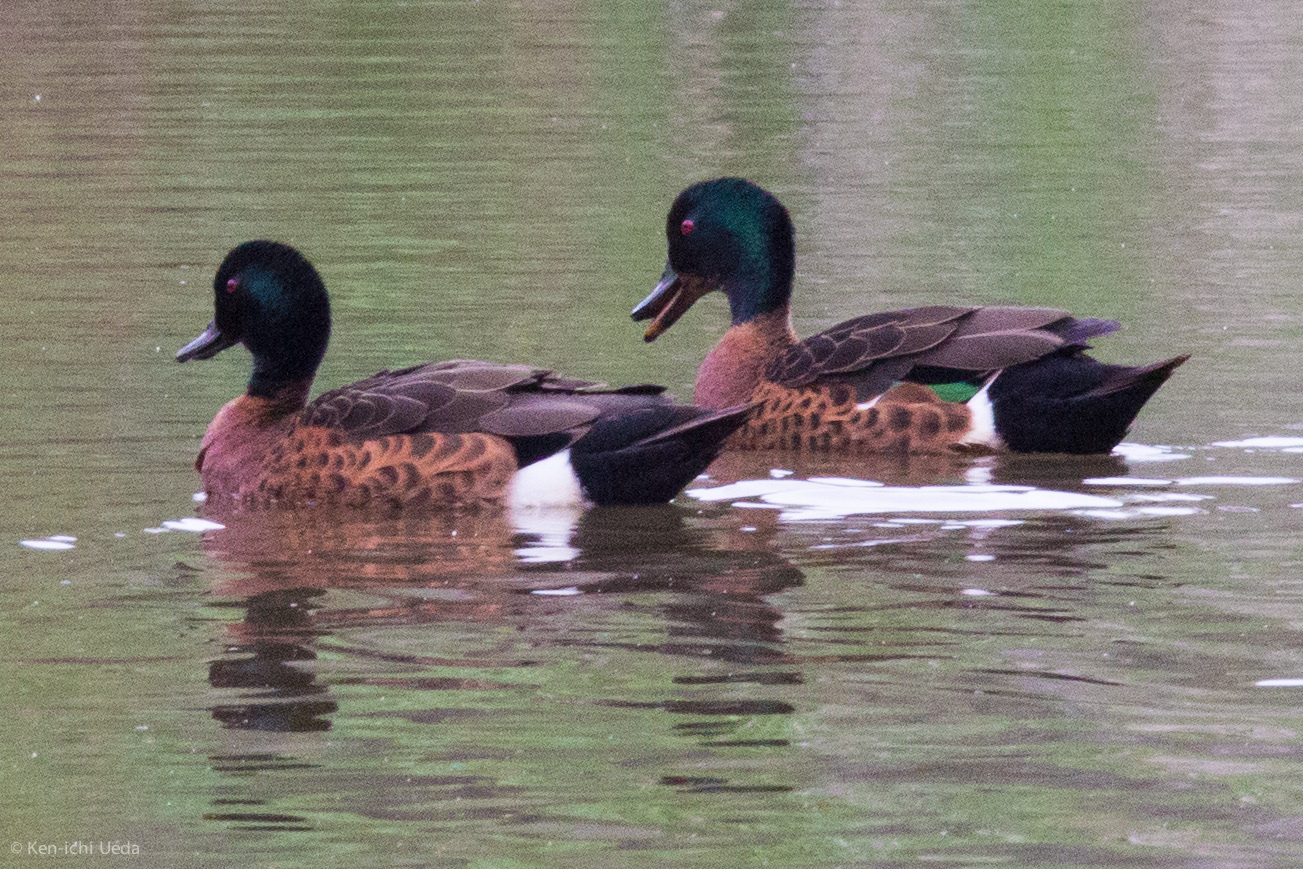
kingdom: Animalia
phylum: Chordata
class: Aves
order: Anseriformes
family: Anatidae
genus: Anas
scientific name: Anas castanea
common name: Chestnut teal
